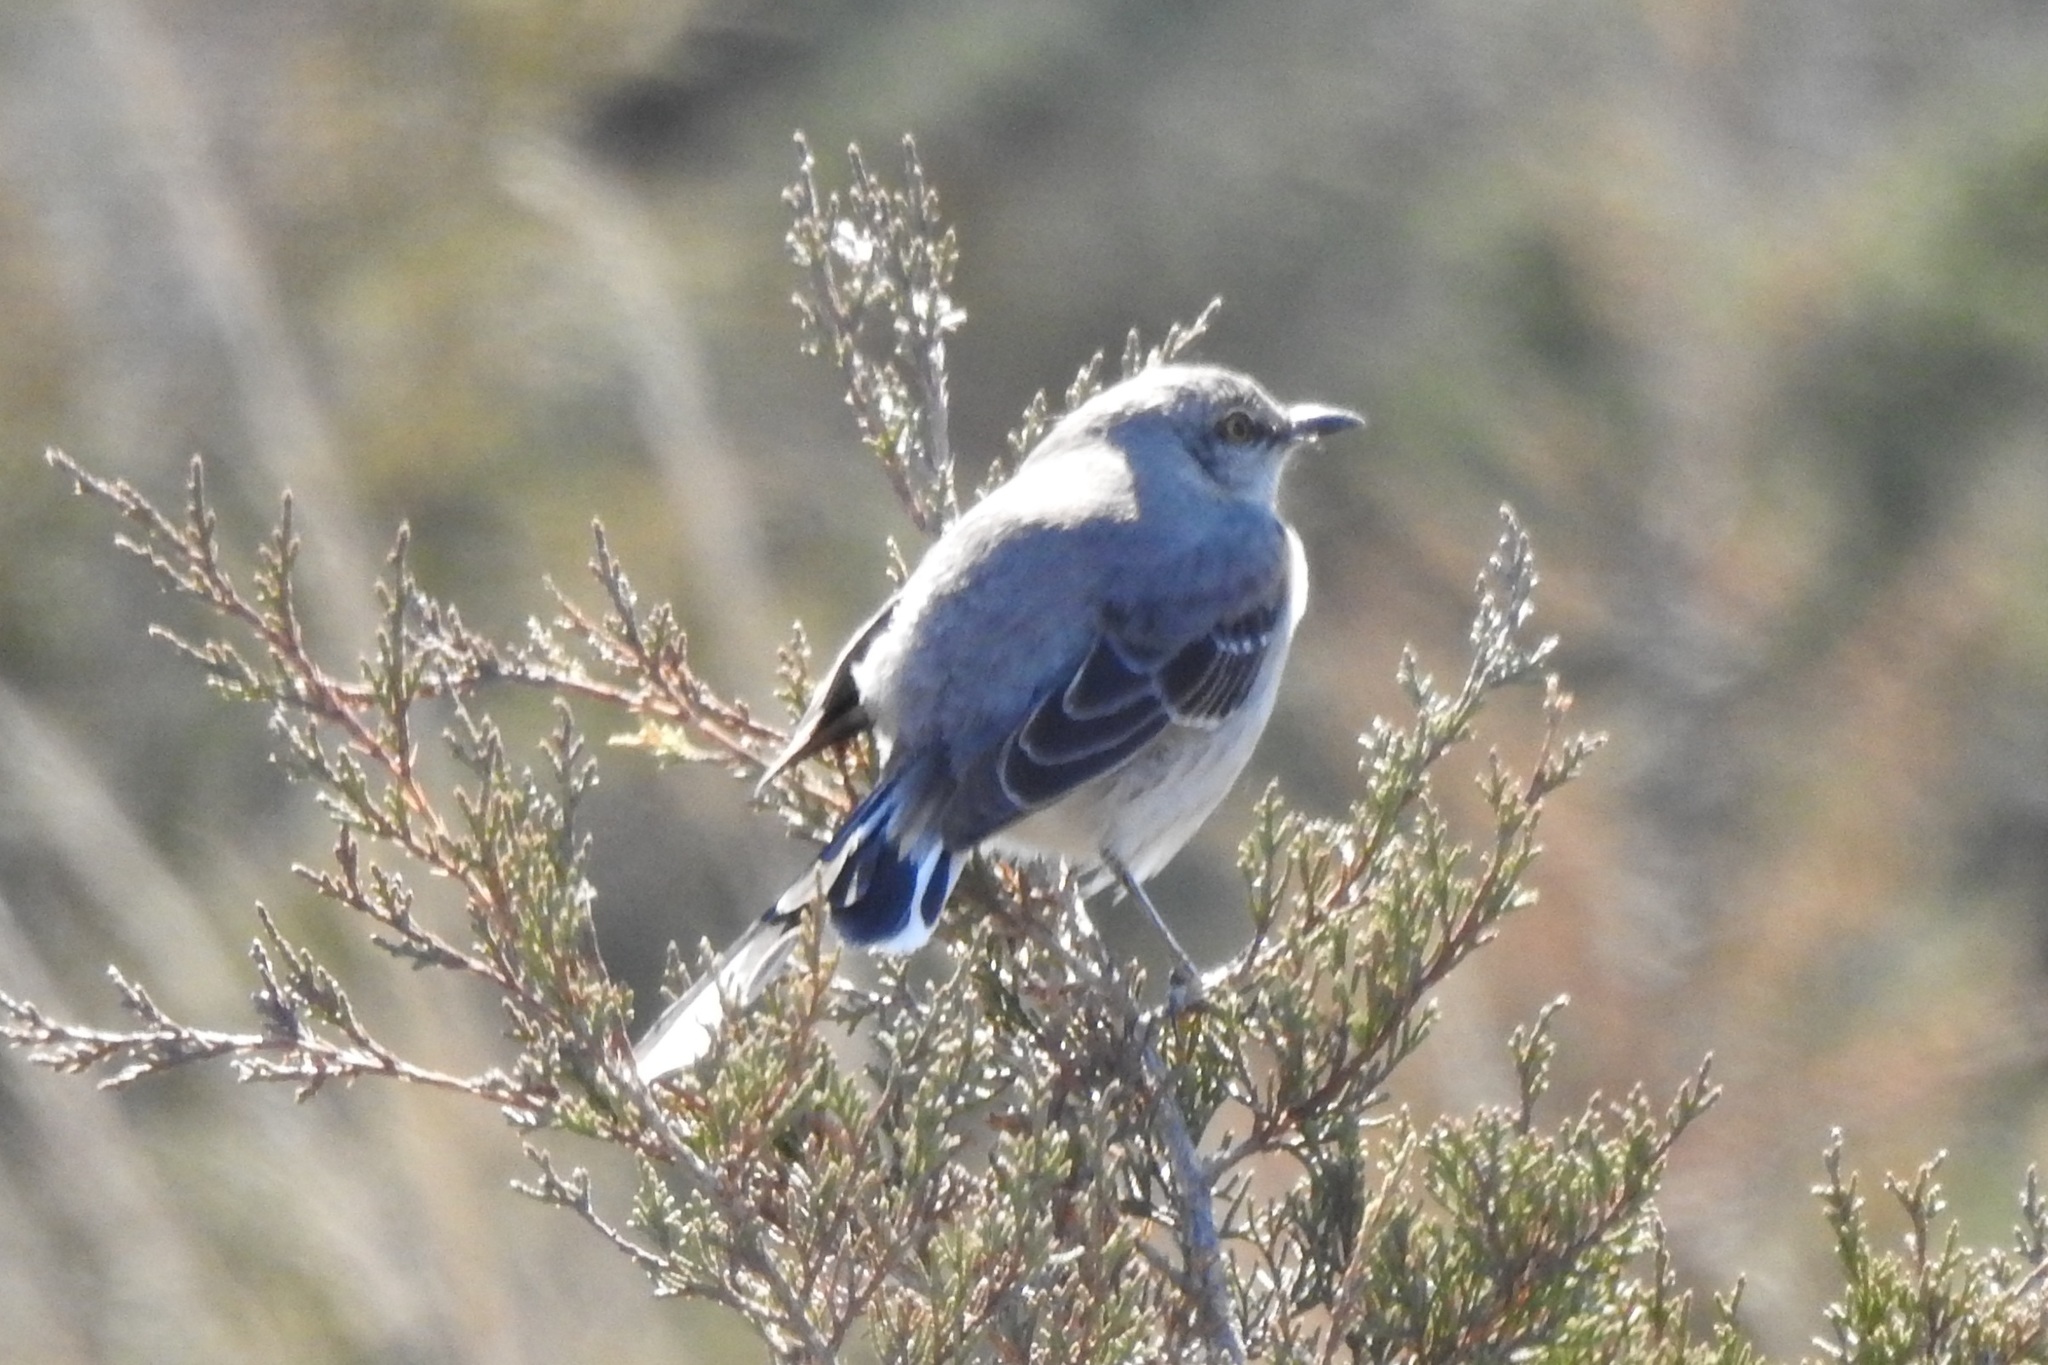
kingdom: Animalia
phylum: Chordata
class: Aves
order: Passeriformes
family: Mimidae
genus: Mimus
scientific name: Mimus polyglottos
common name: Northern mockingbird
